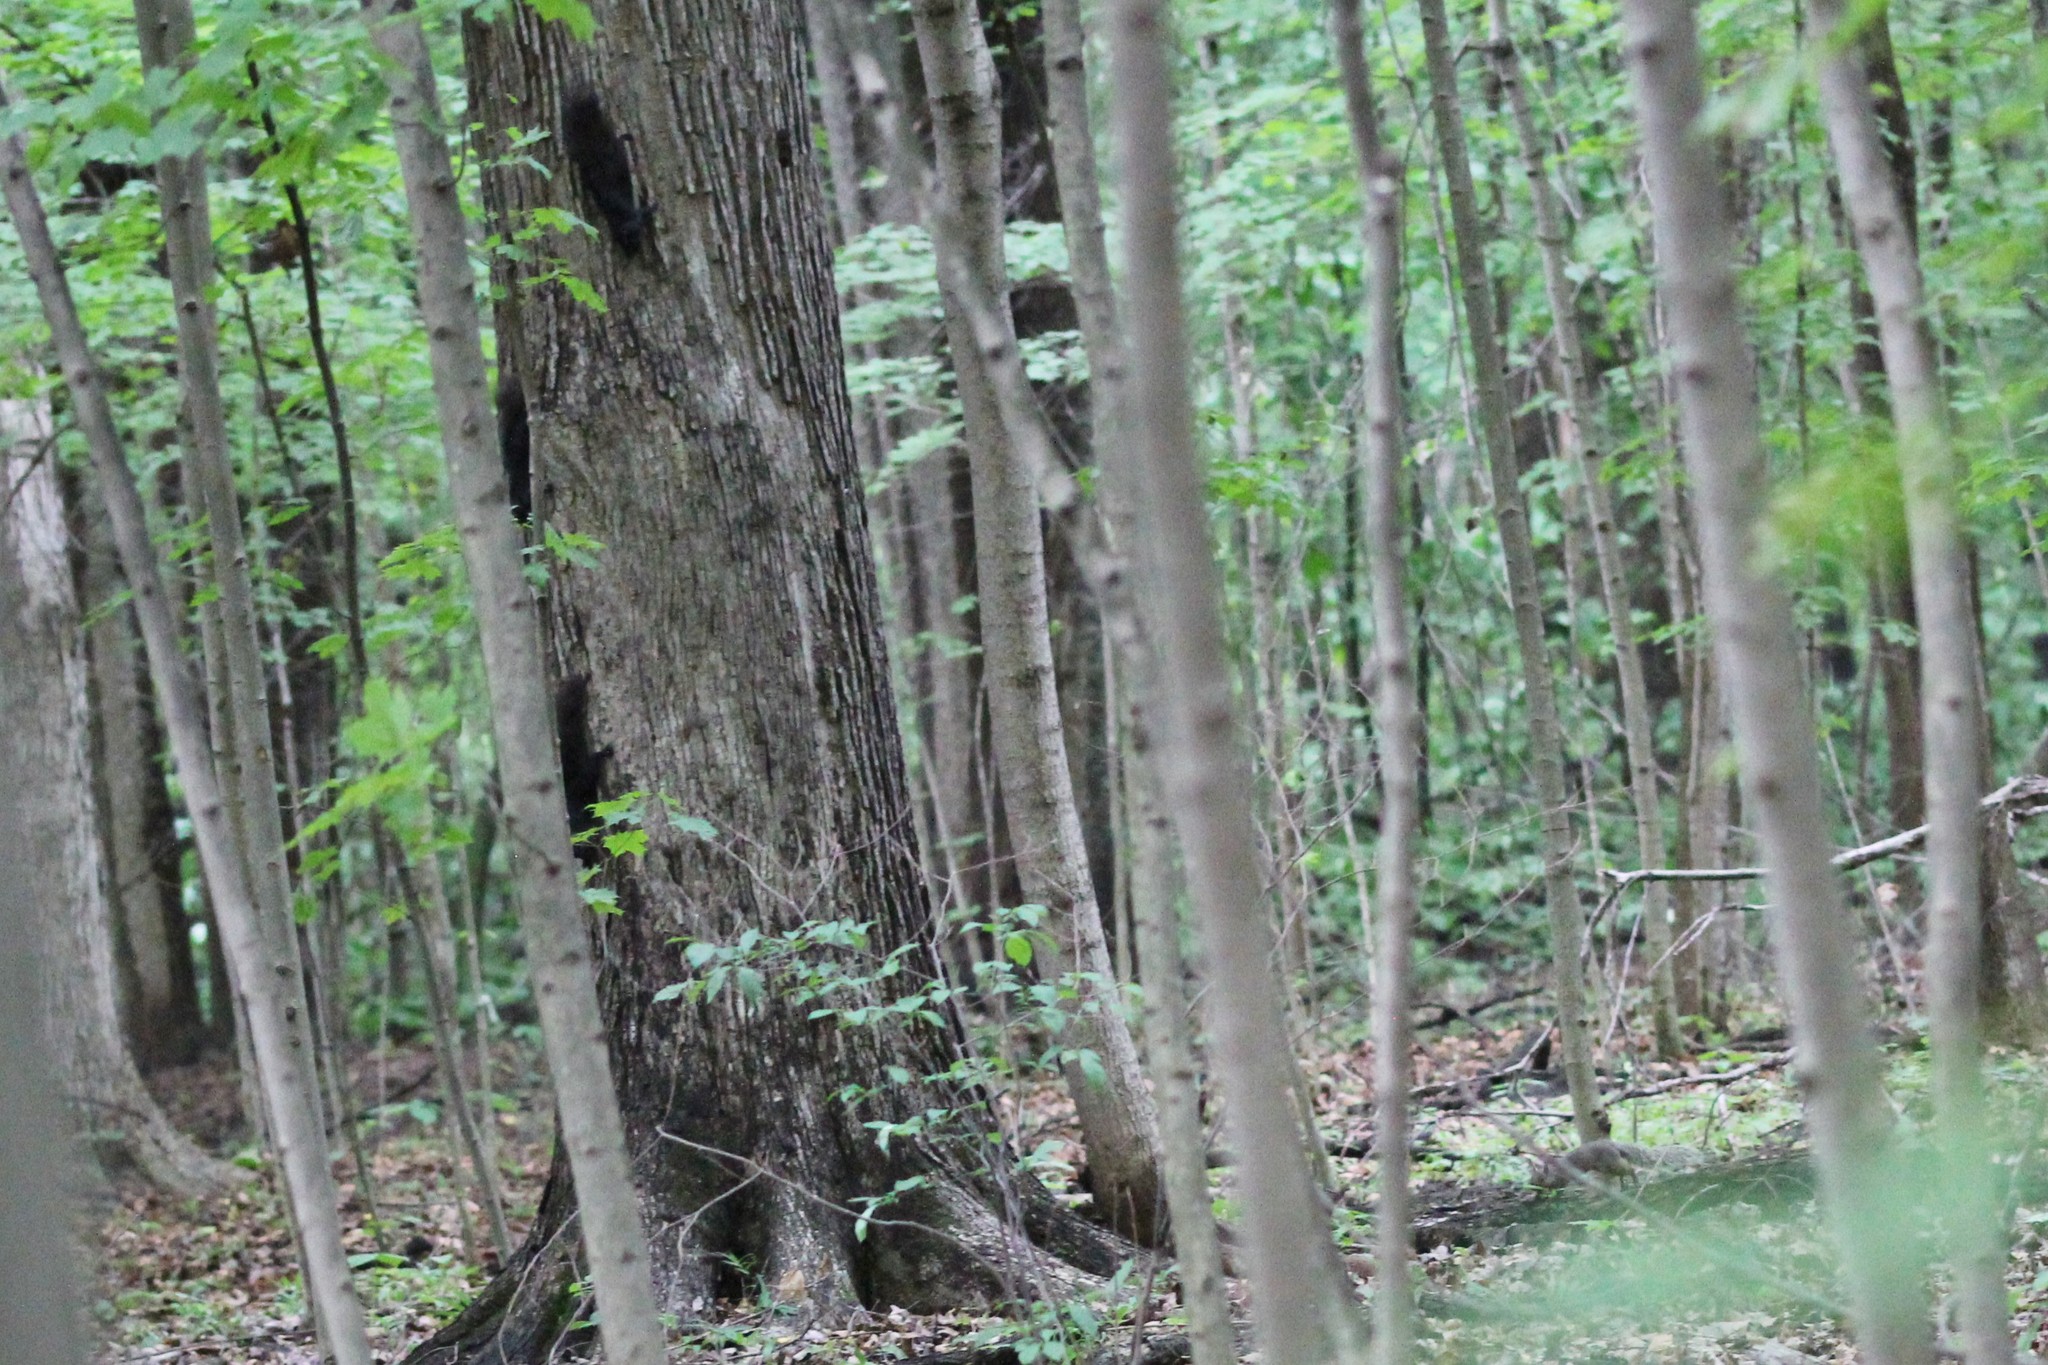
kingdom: Animalia
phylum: Chordata
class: Mammalia
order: Rodentia
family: Sciuridae
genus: Sciurus
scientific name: Sciurus carolinensis
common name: Eastern gray squirrel
